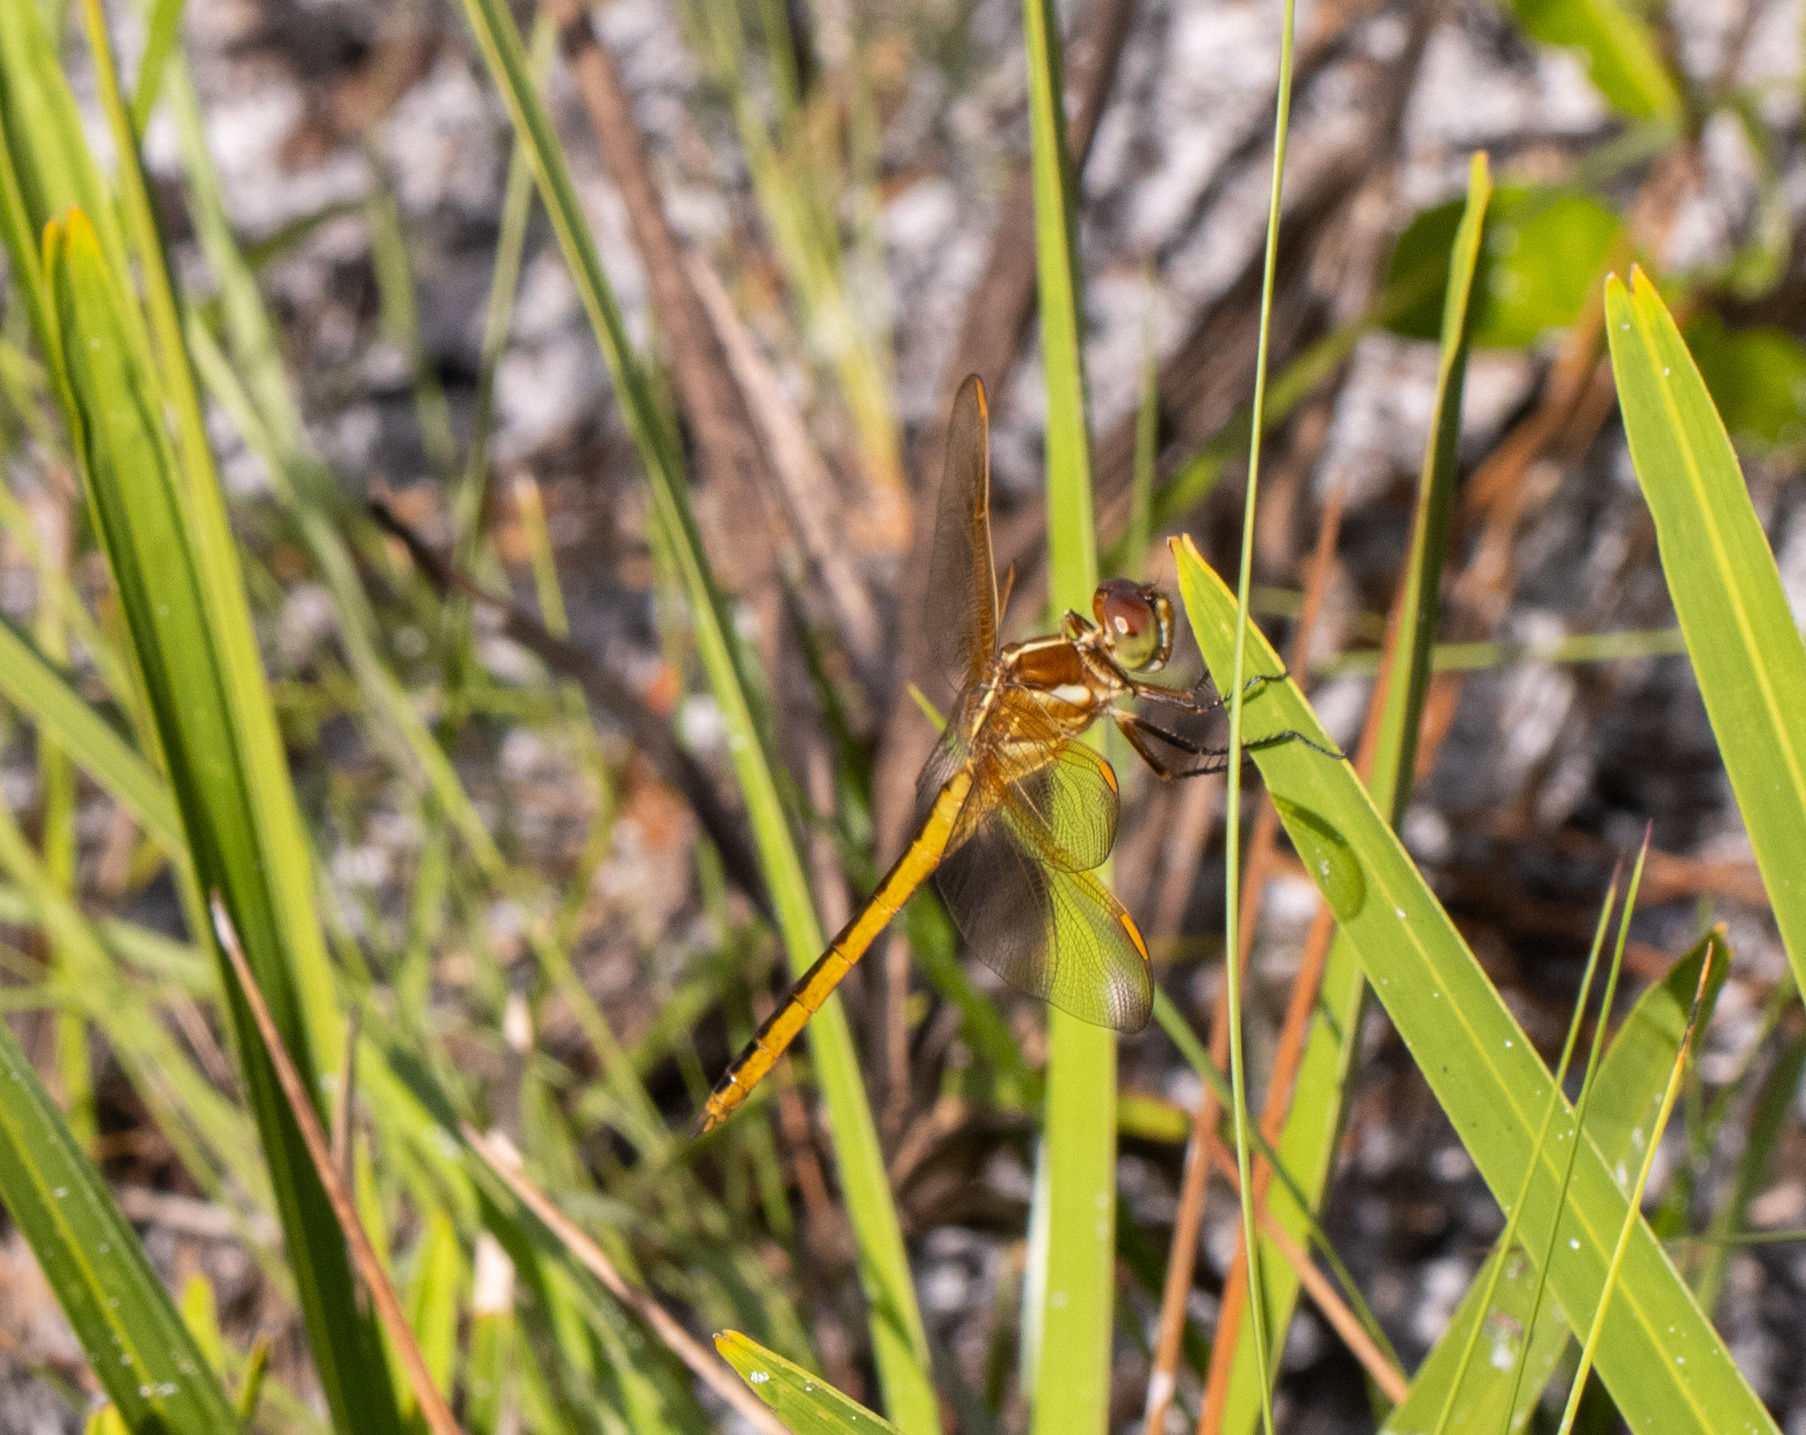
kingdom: Animalia
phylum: Arthropoda
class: Insecta
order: Odonata
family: Libellulidae
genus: Libellula
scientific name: Libellula auripennis
